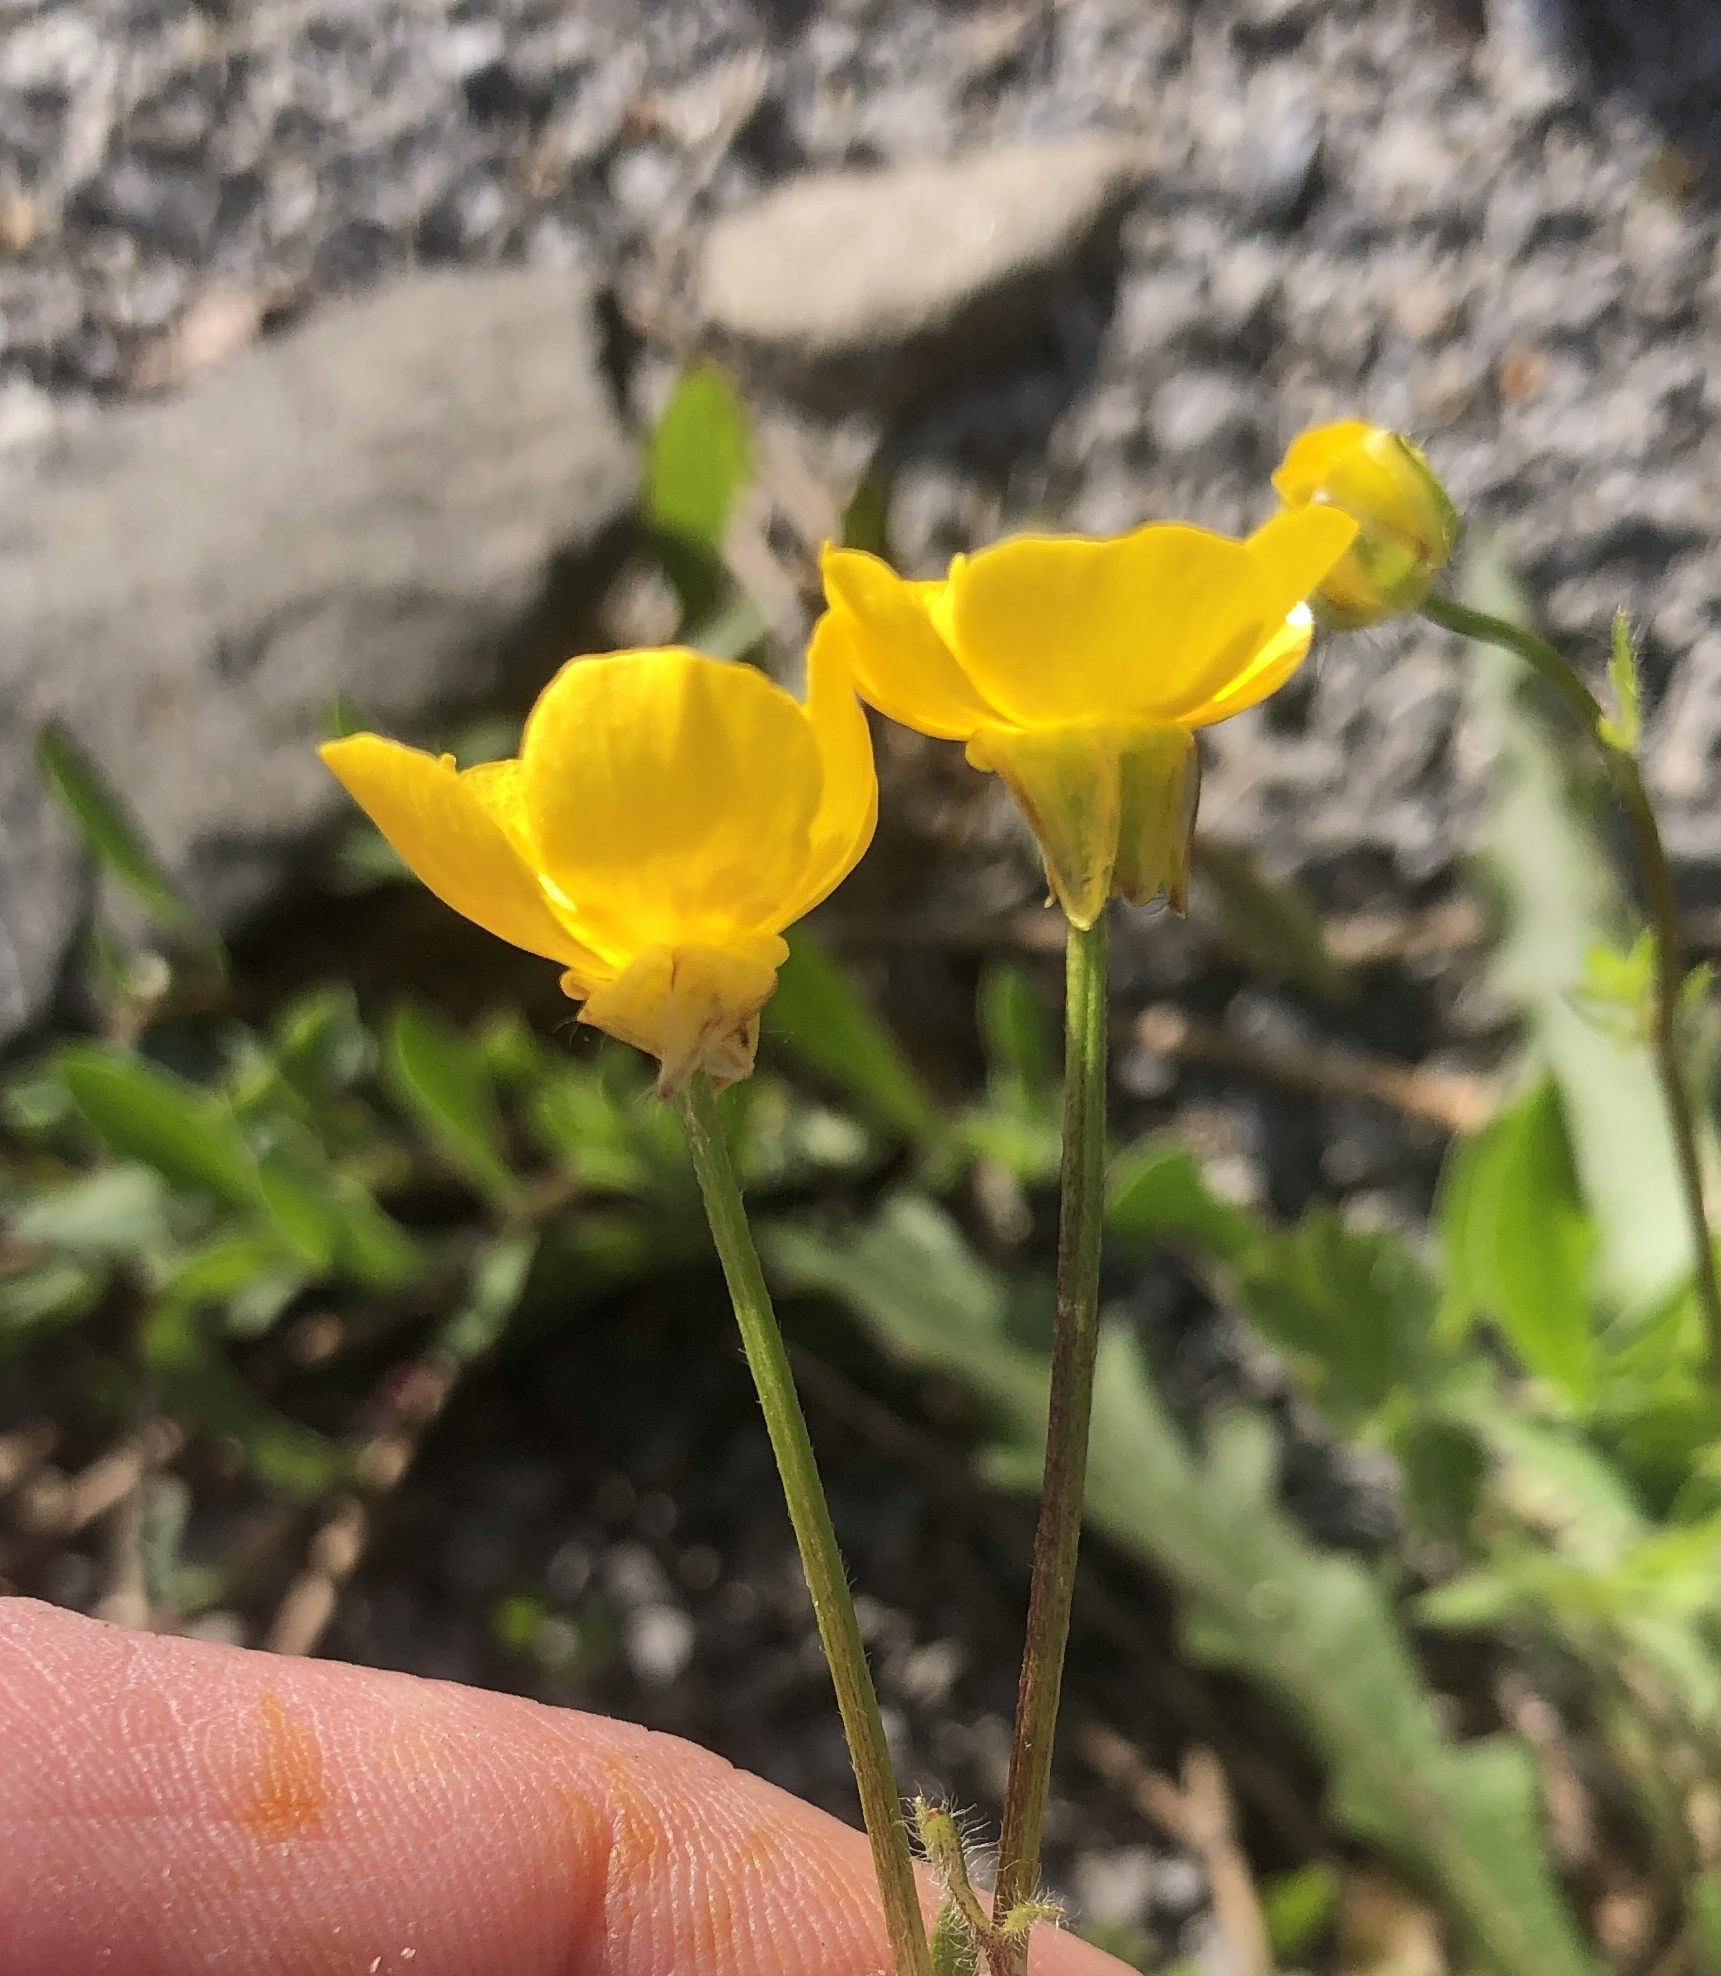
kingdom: Plantae
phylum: Tracheophyta
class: Magnoliopsida
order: Ranunculales
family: Ranunculaceae
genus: Ranunculus
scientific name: Ranunculus bulbosus
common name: Bulbous buttercup
